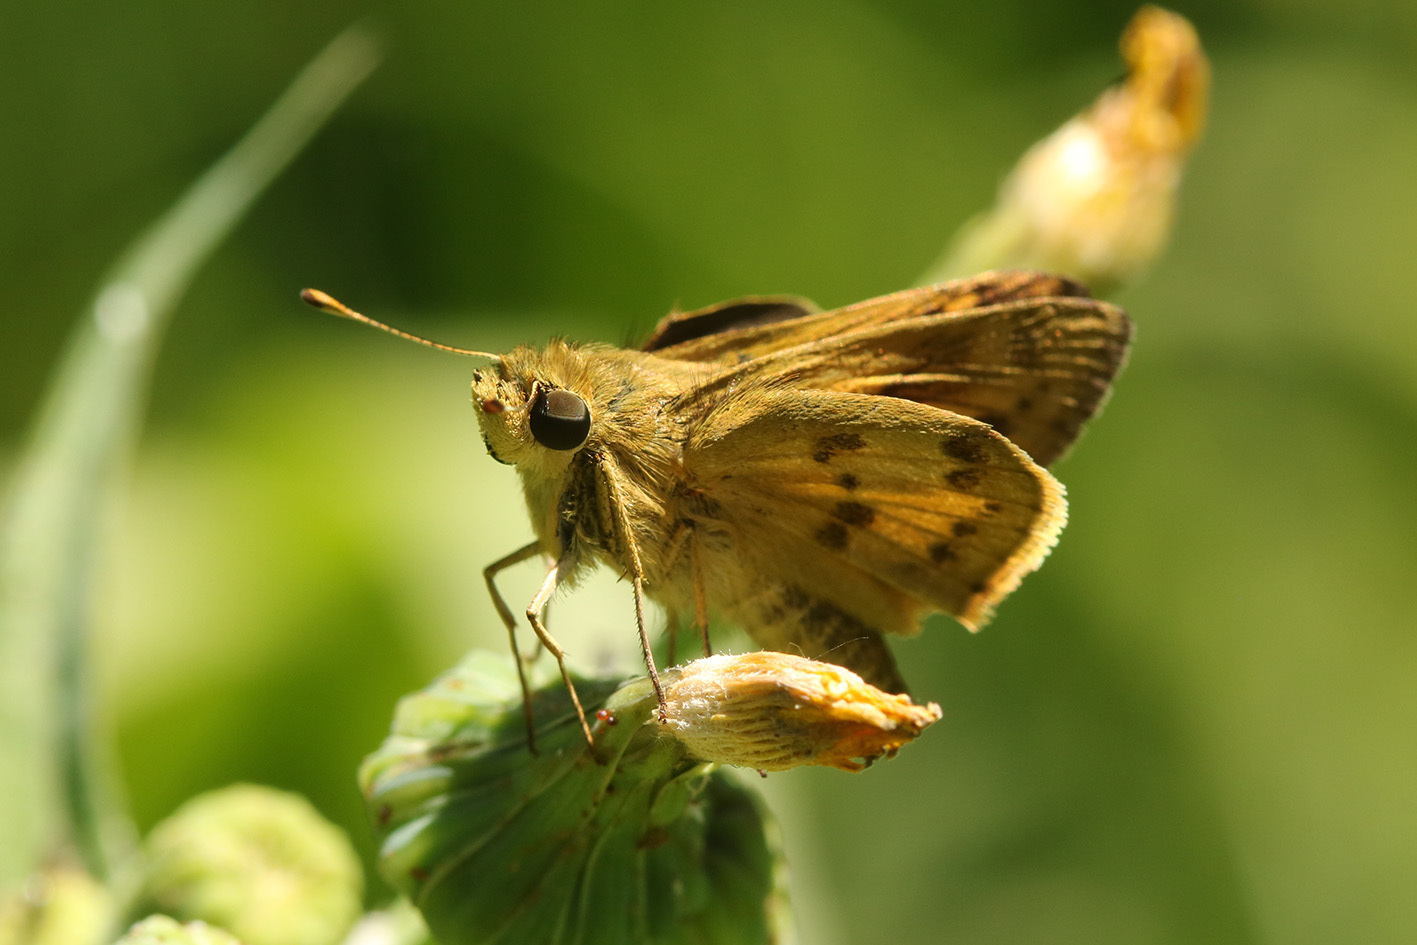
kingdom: Animalia
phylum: Arthropoda
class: Insecta
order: Lepidoptera
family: Hesperiidae
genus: Polites
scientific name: Polites vibex
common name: Whirlabout
